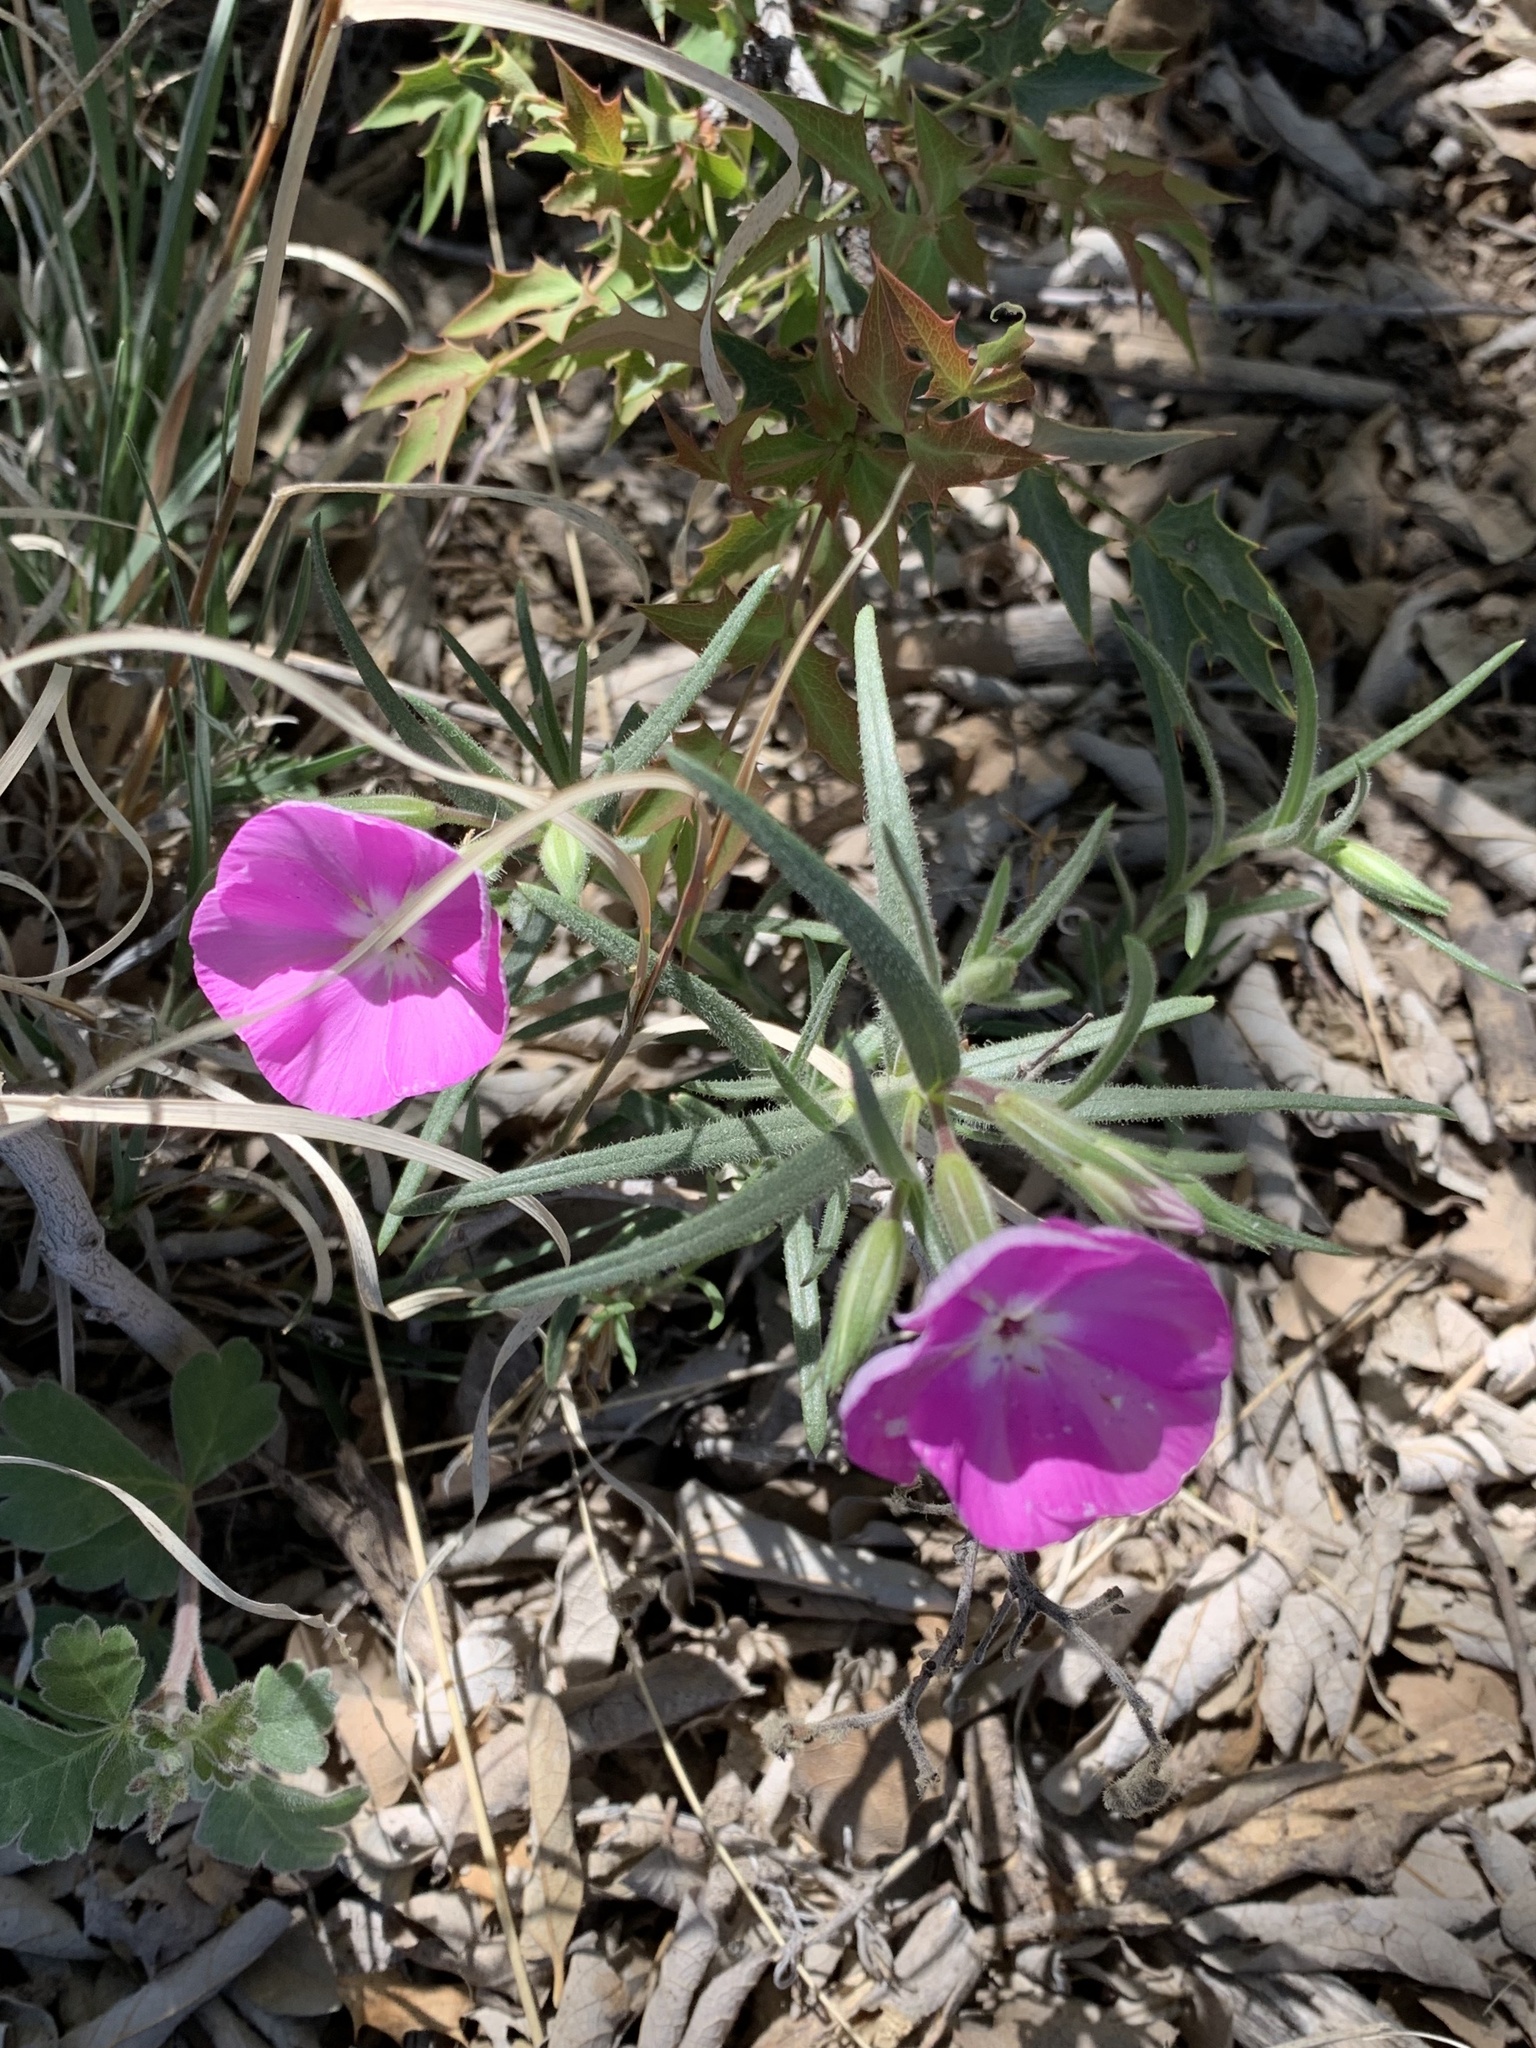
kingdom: Plantae
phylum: Tracheophyta
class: Magnoliopsida
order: Ericales
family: Polemoniaceae
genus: Phlox
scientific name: Phlox nana
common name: Santa fe phlox
